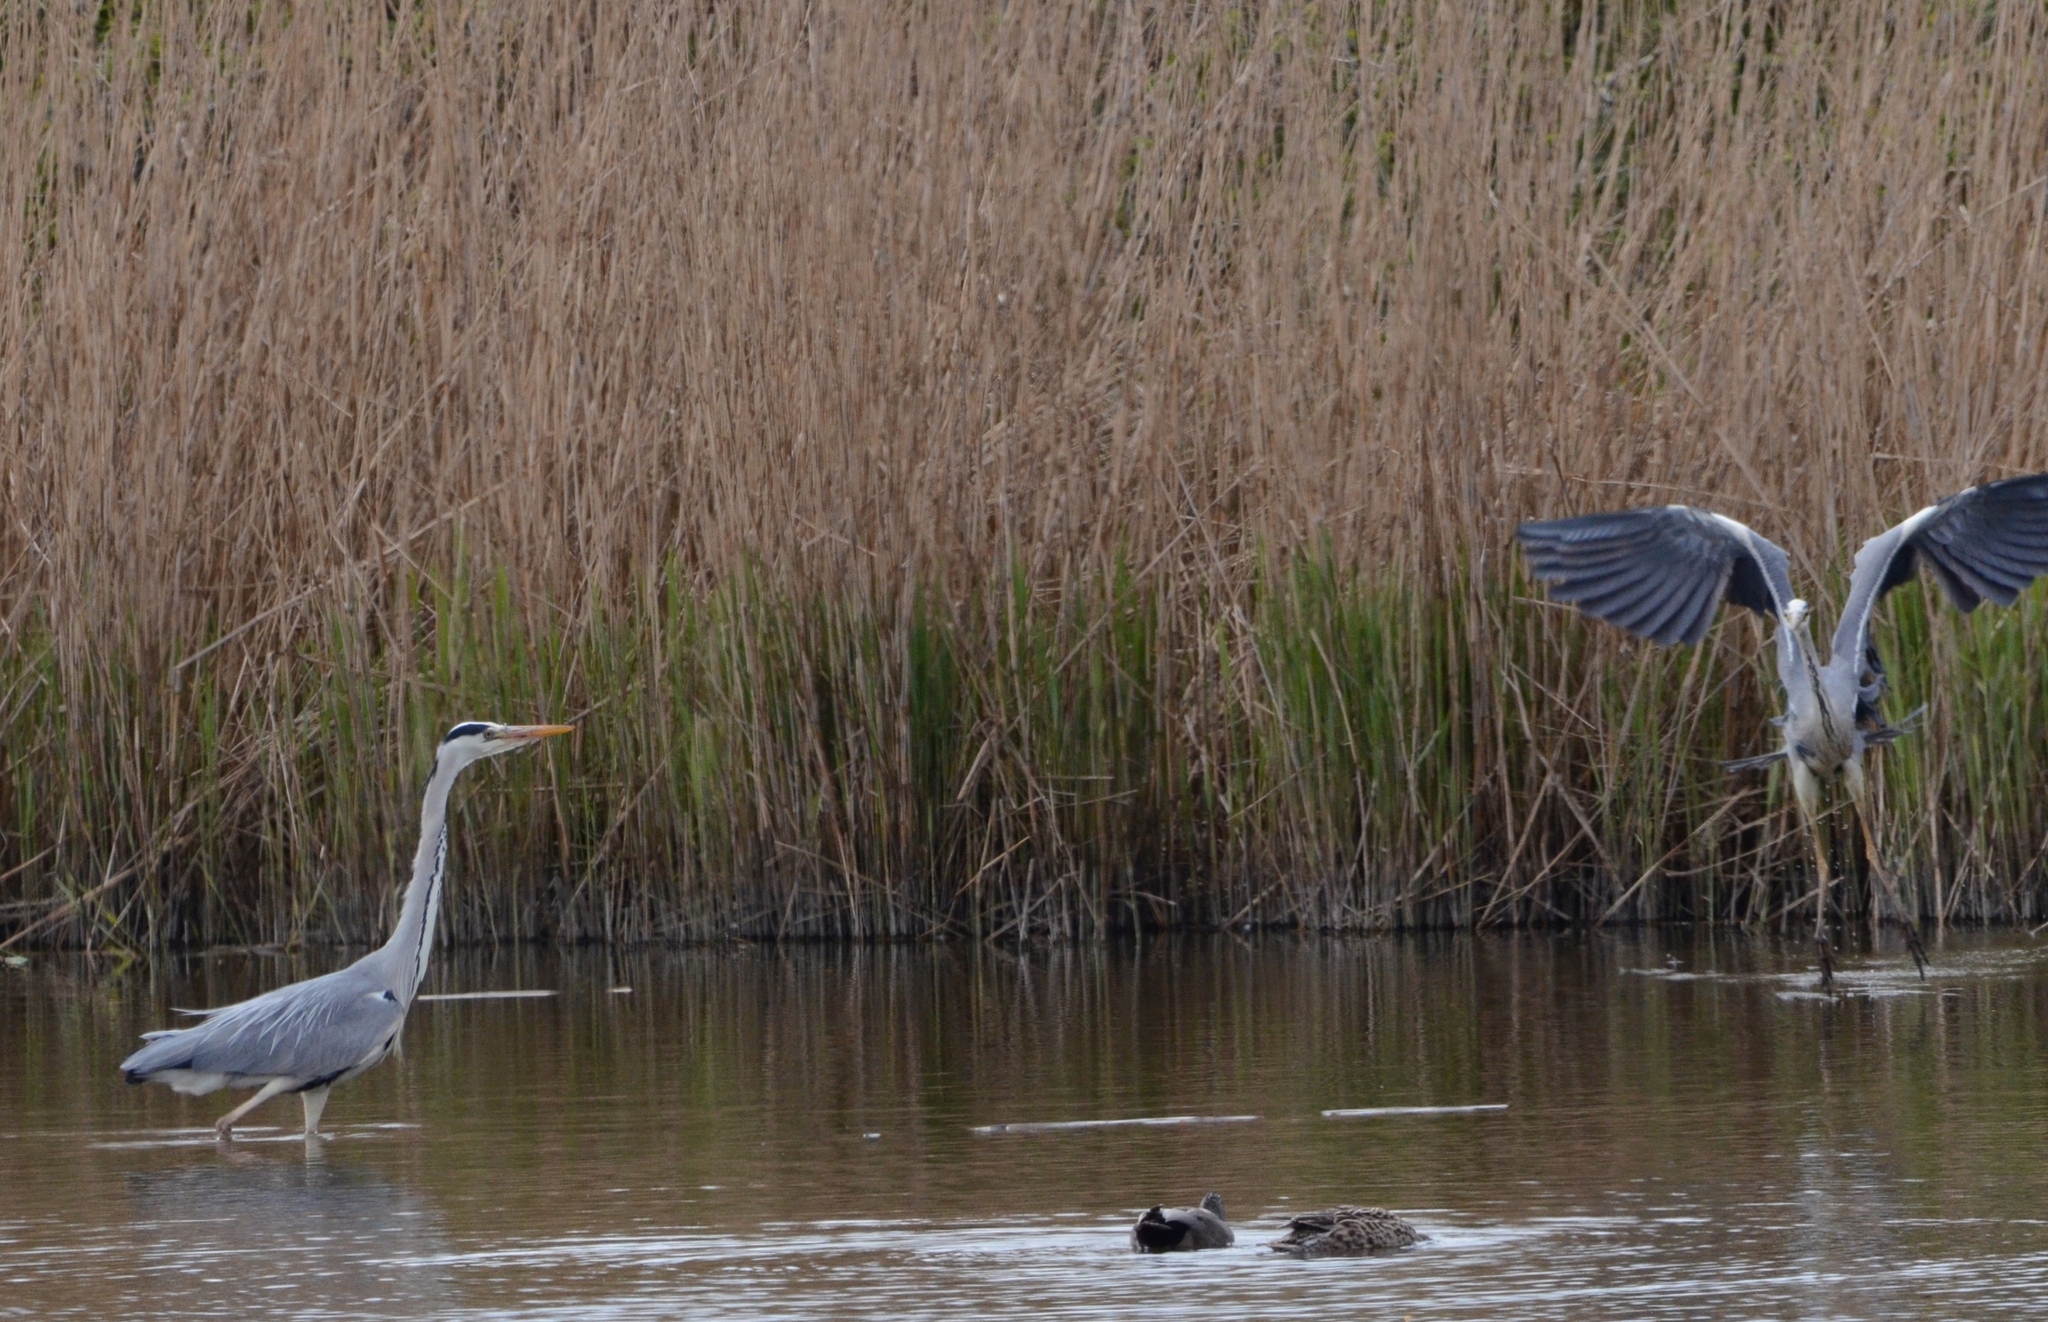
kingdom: Animalia
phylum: Chordata
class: Aves
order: Pelecaniformes
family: Ardeidae
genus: Ardea
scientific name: Ardea cinerea
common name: Grey heron
